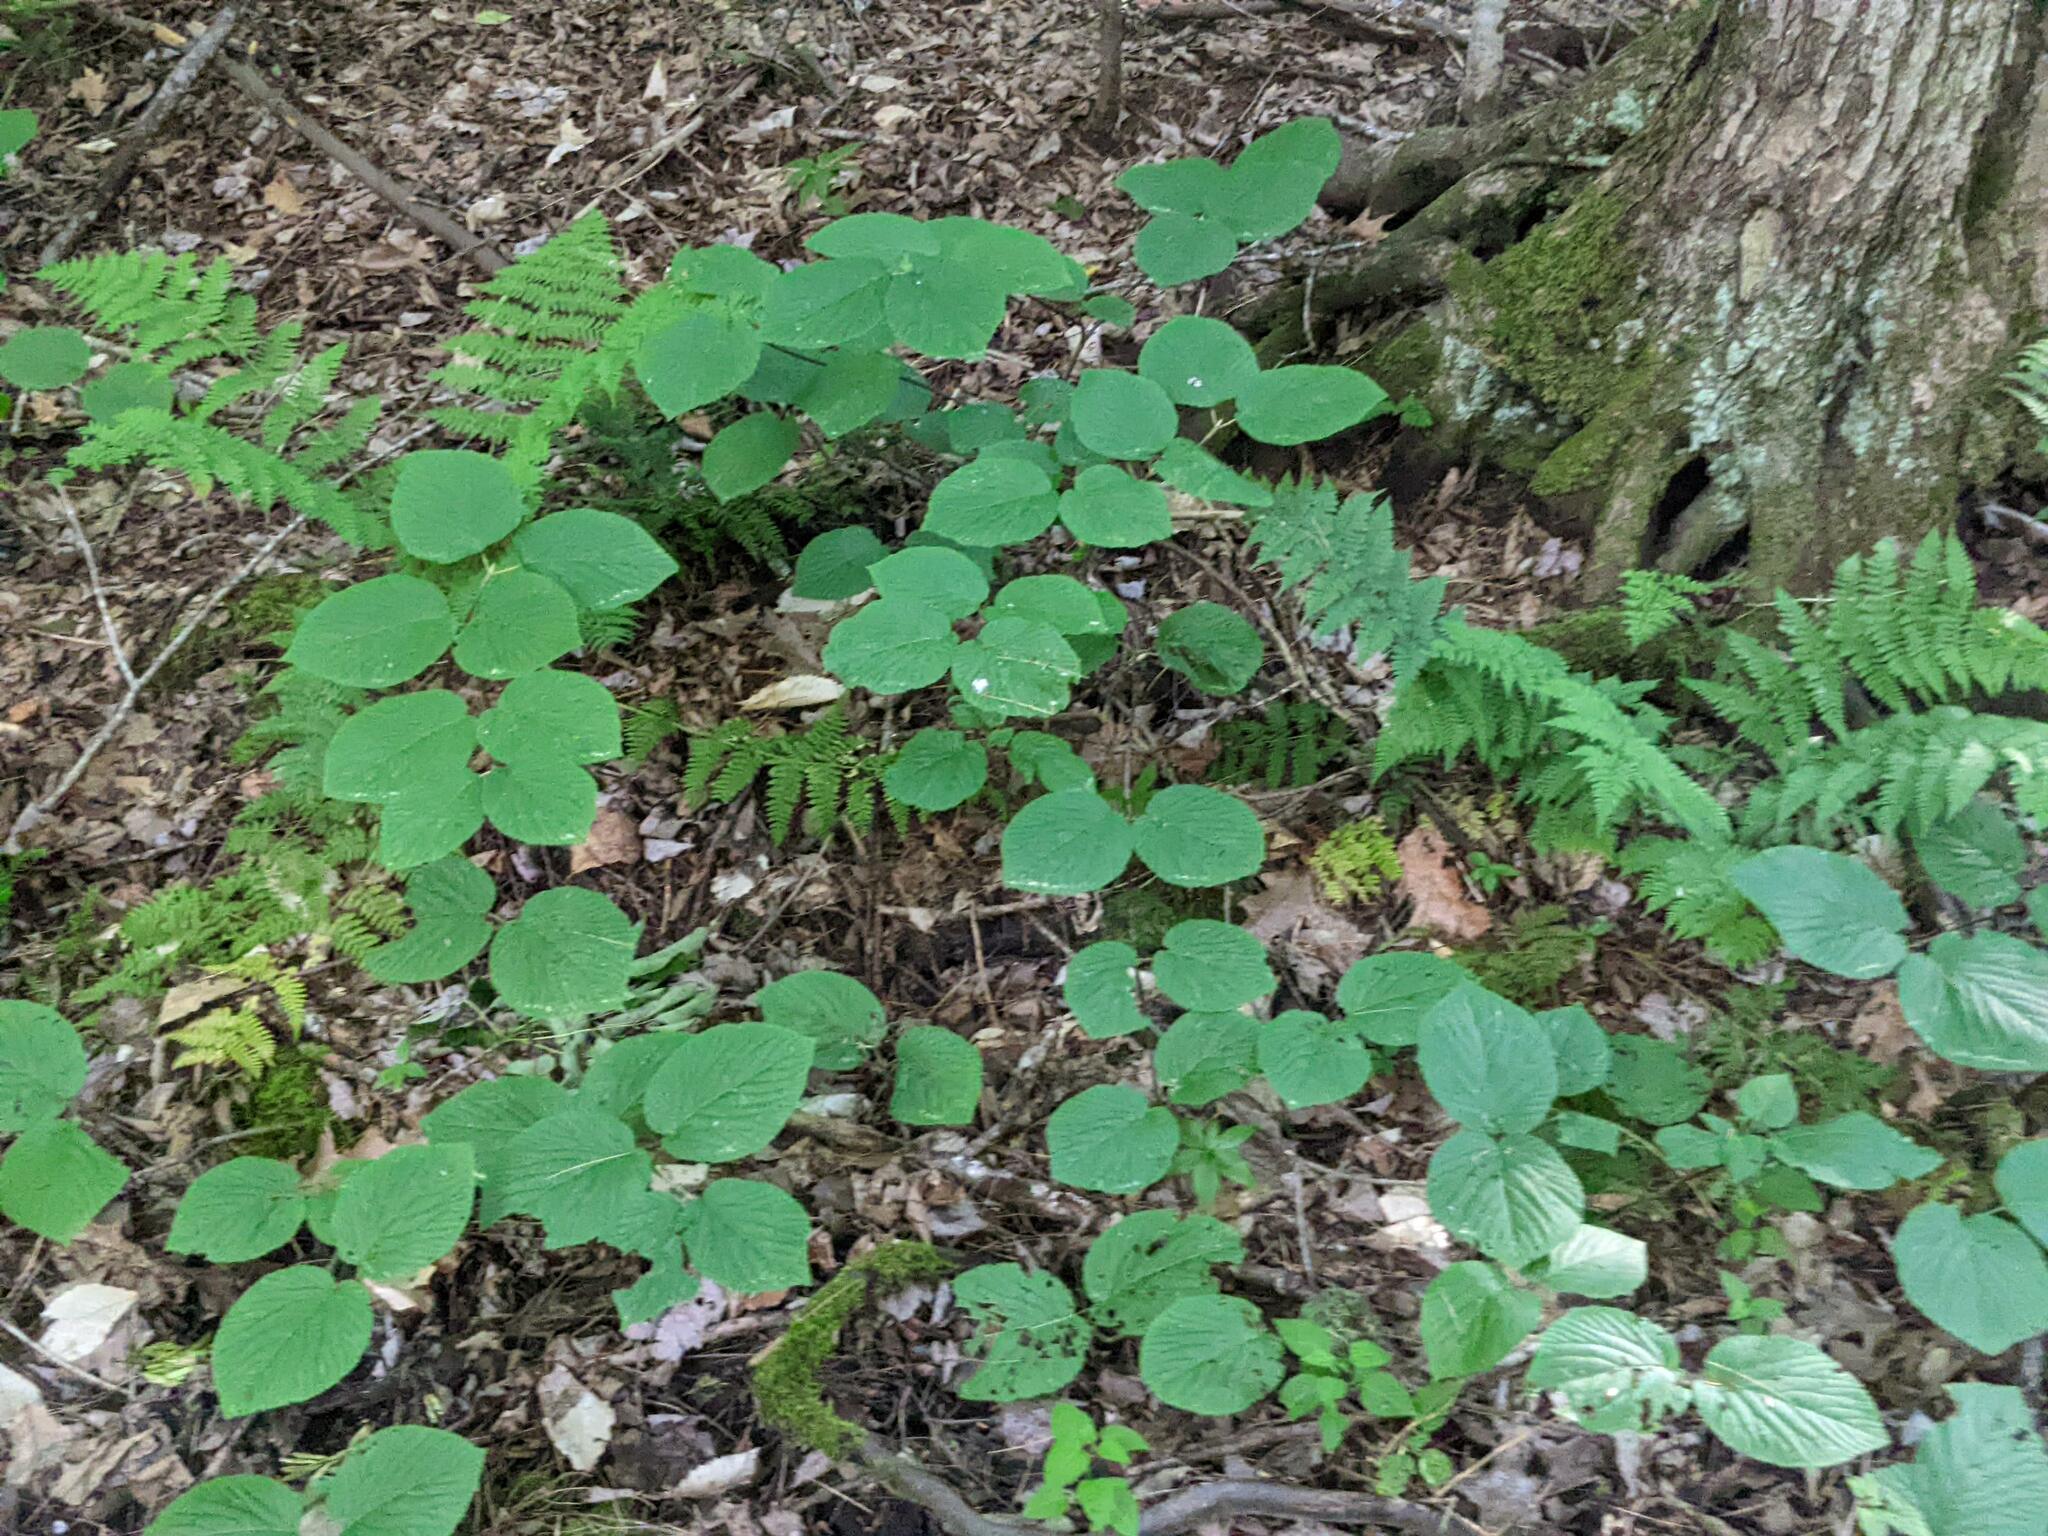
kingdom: Plantae
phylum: Tracheophyta
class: Magnoliopsida
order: Dipsacales
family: Viburnaceae
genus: Viburnum
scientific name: Viburnum lantanoides
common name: Hobblebush
